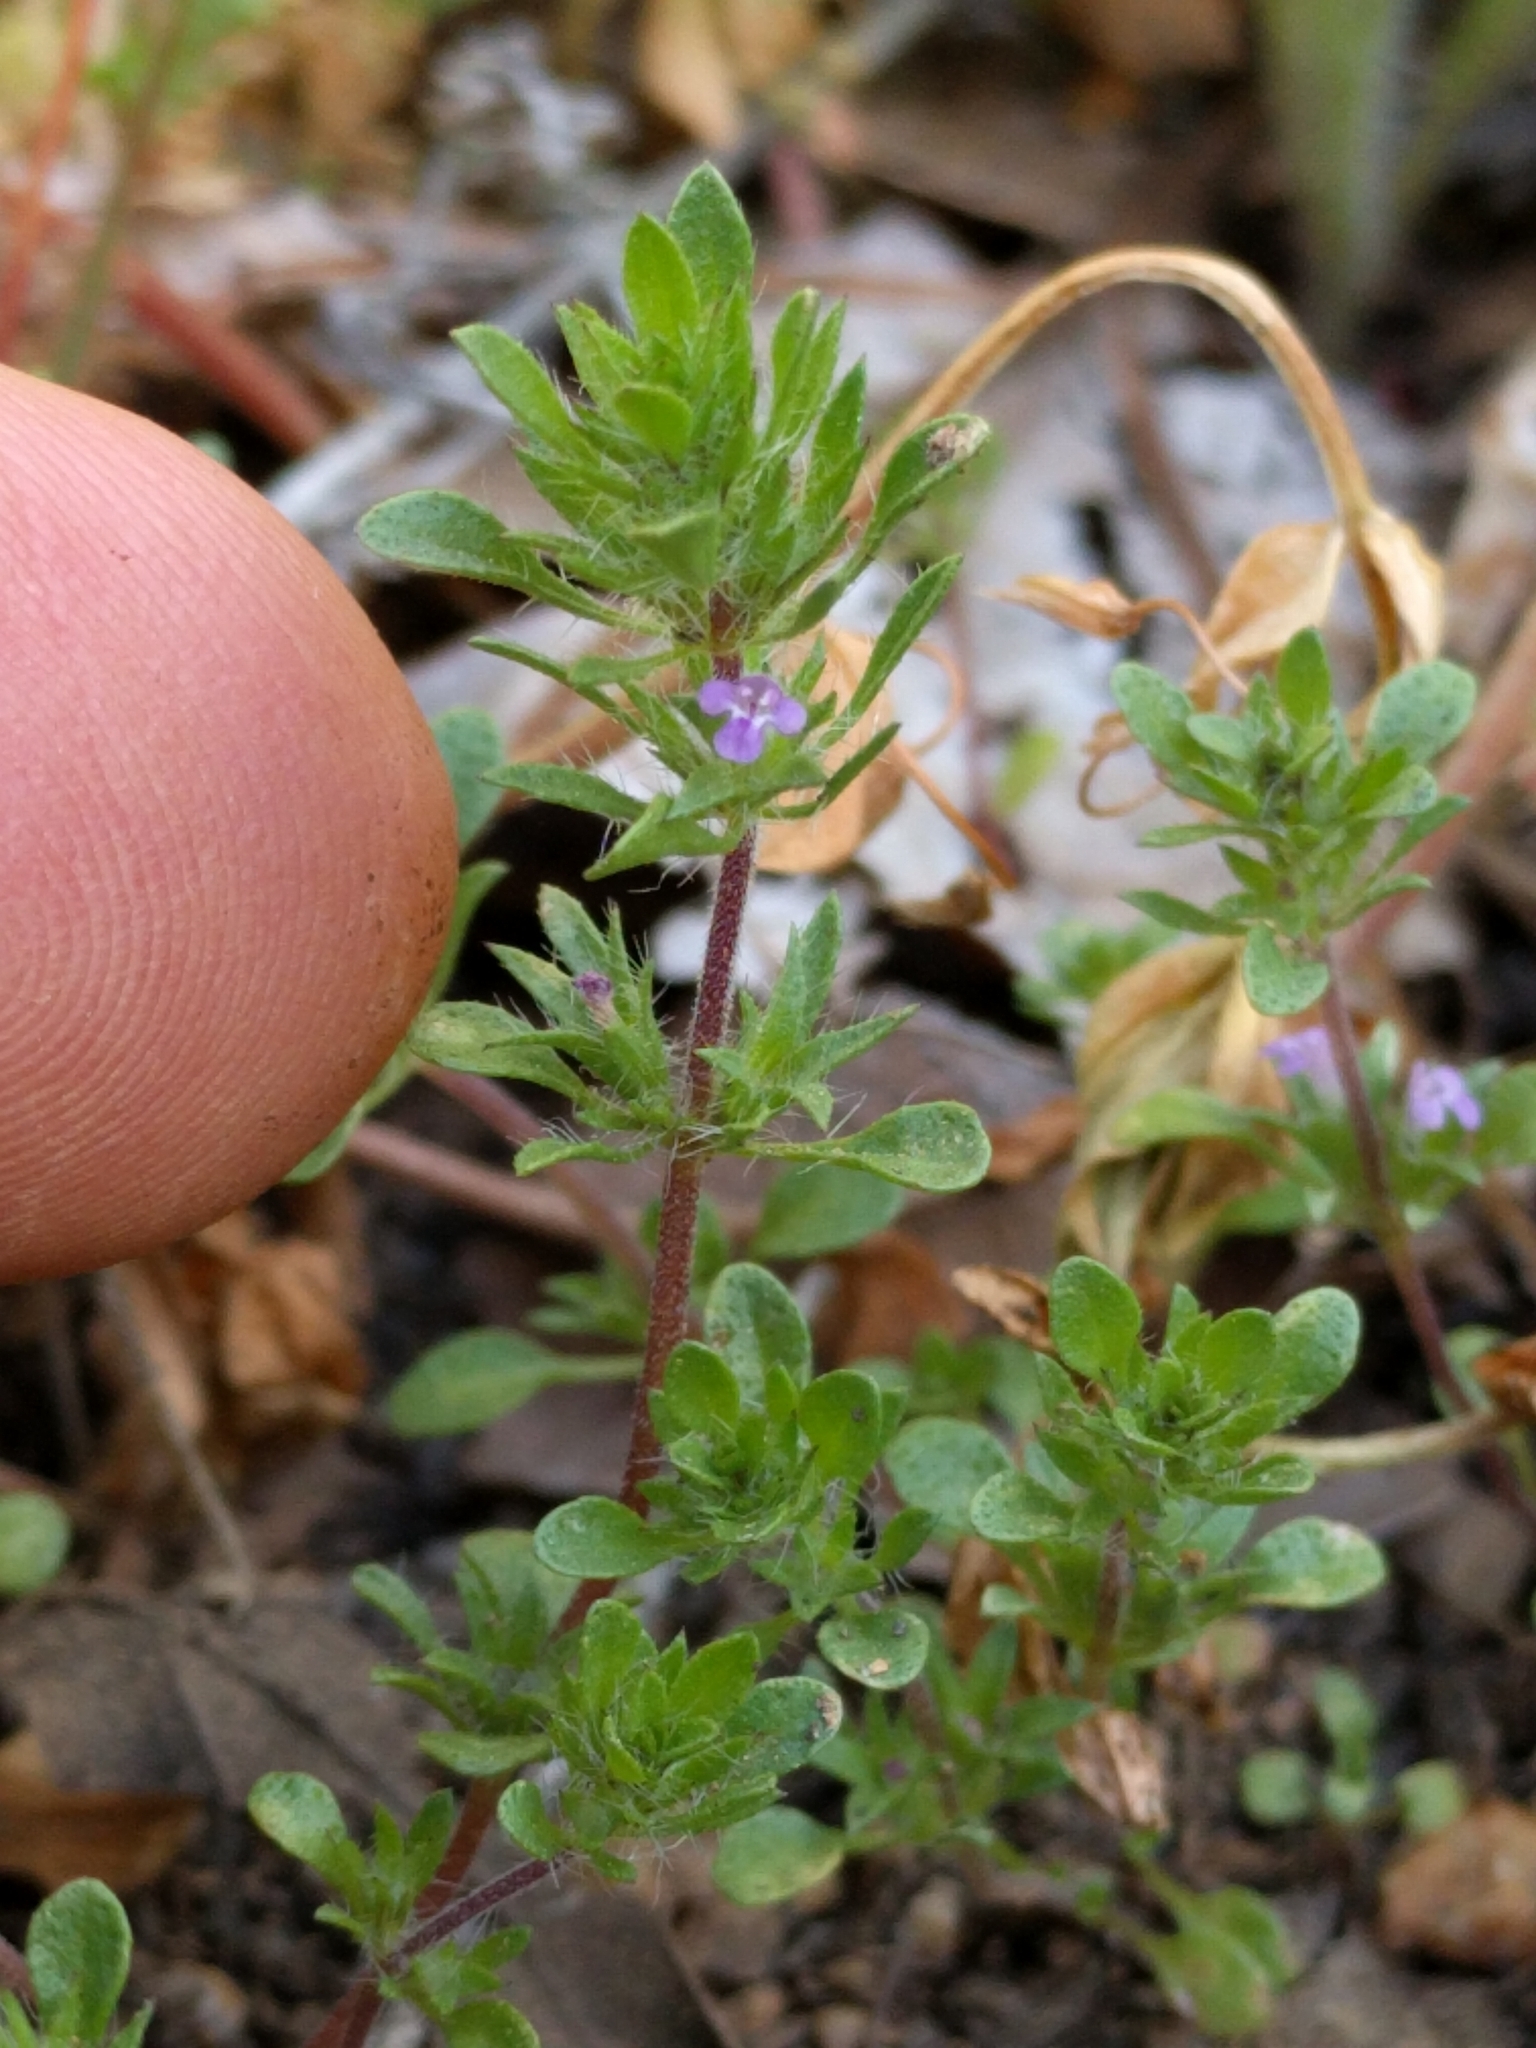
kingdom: Plantae
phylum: Tracheophyta
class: Magnoliopsida
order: Lamiales
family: Lamiaceae
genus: Pogogyne
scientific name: Pogogyne serpylloides
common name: Thymeleaf mesamint
